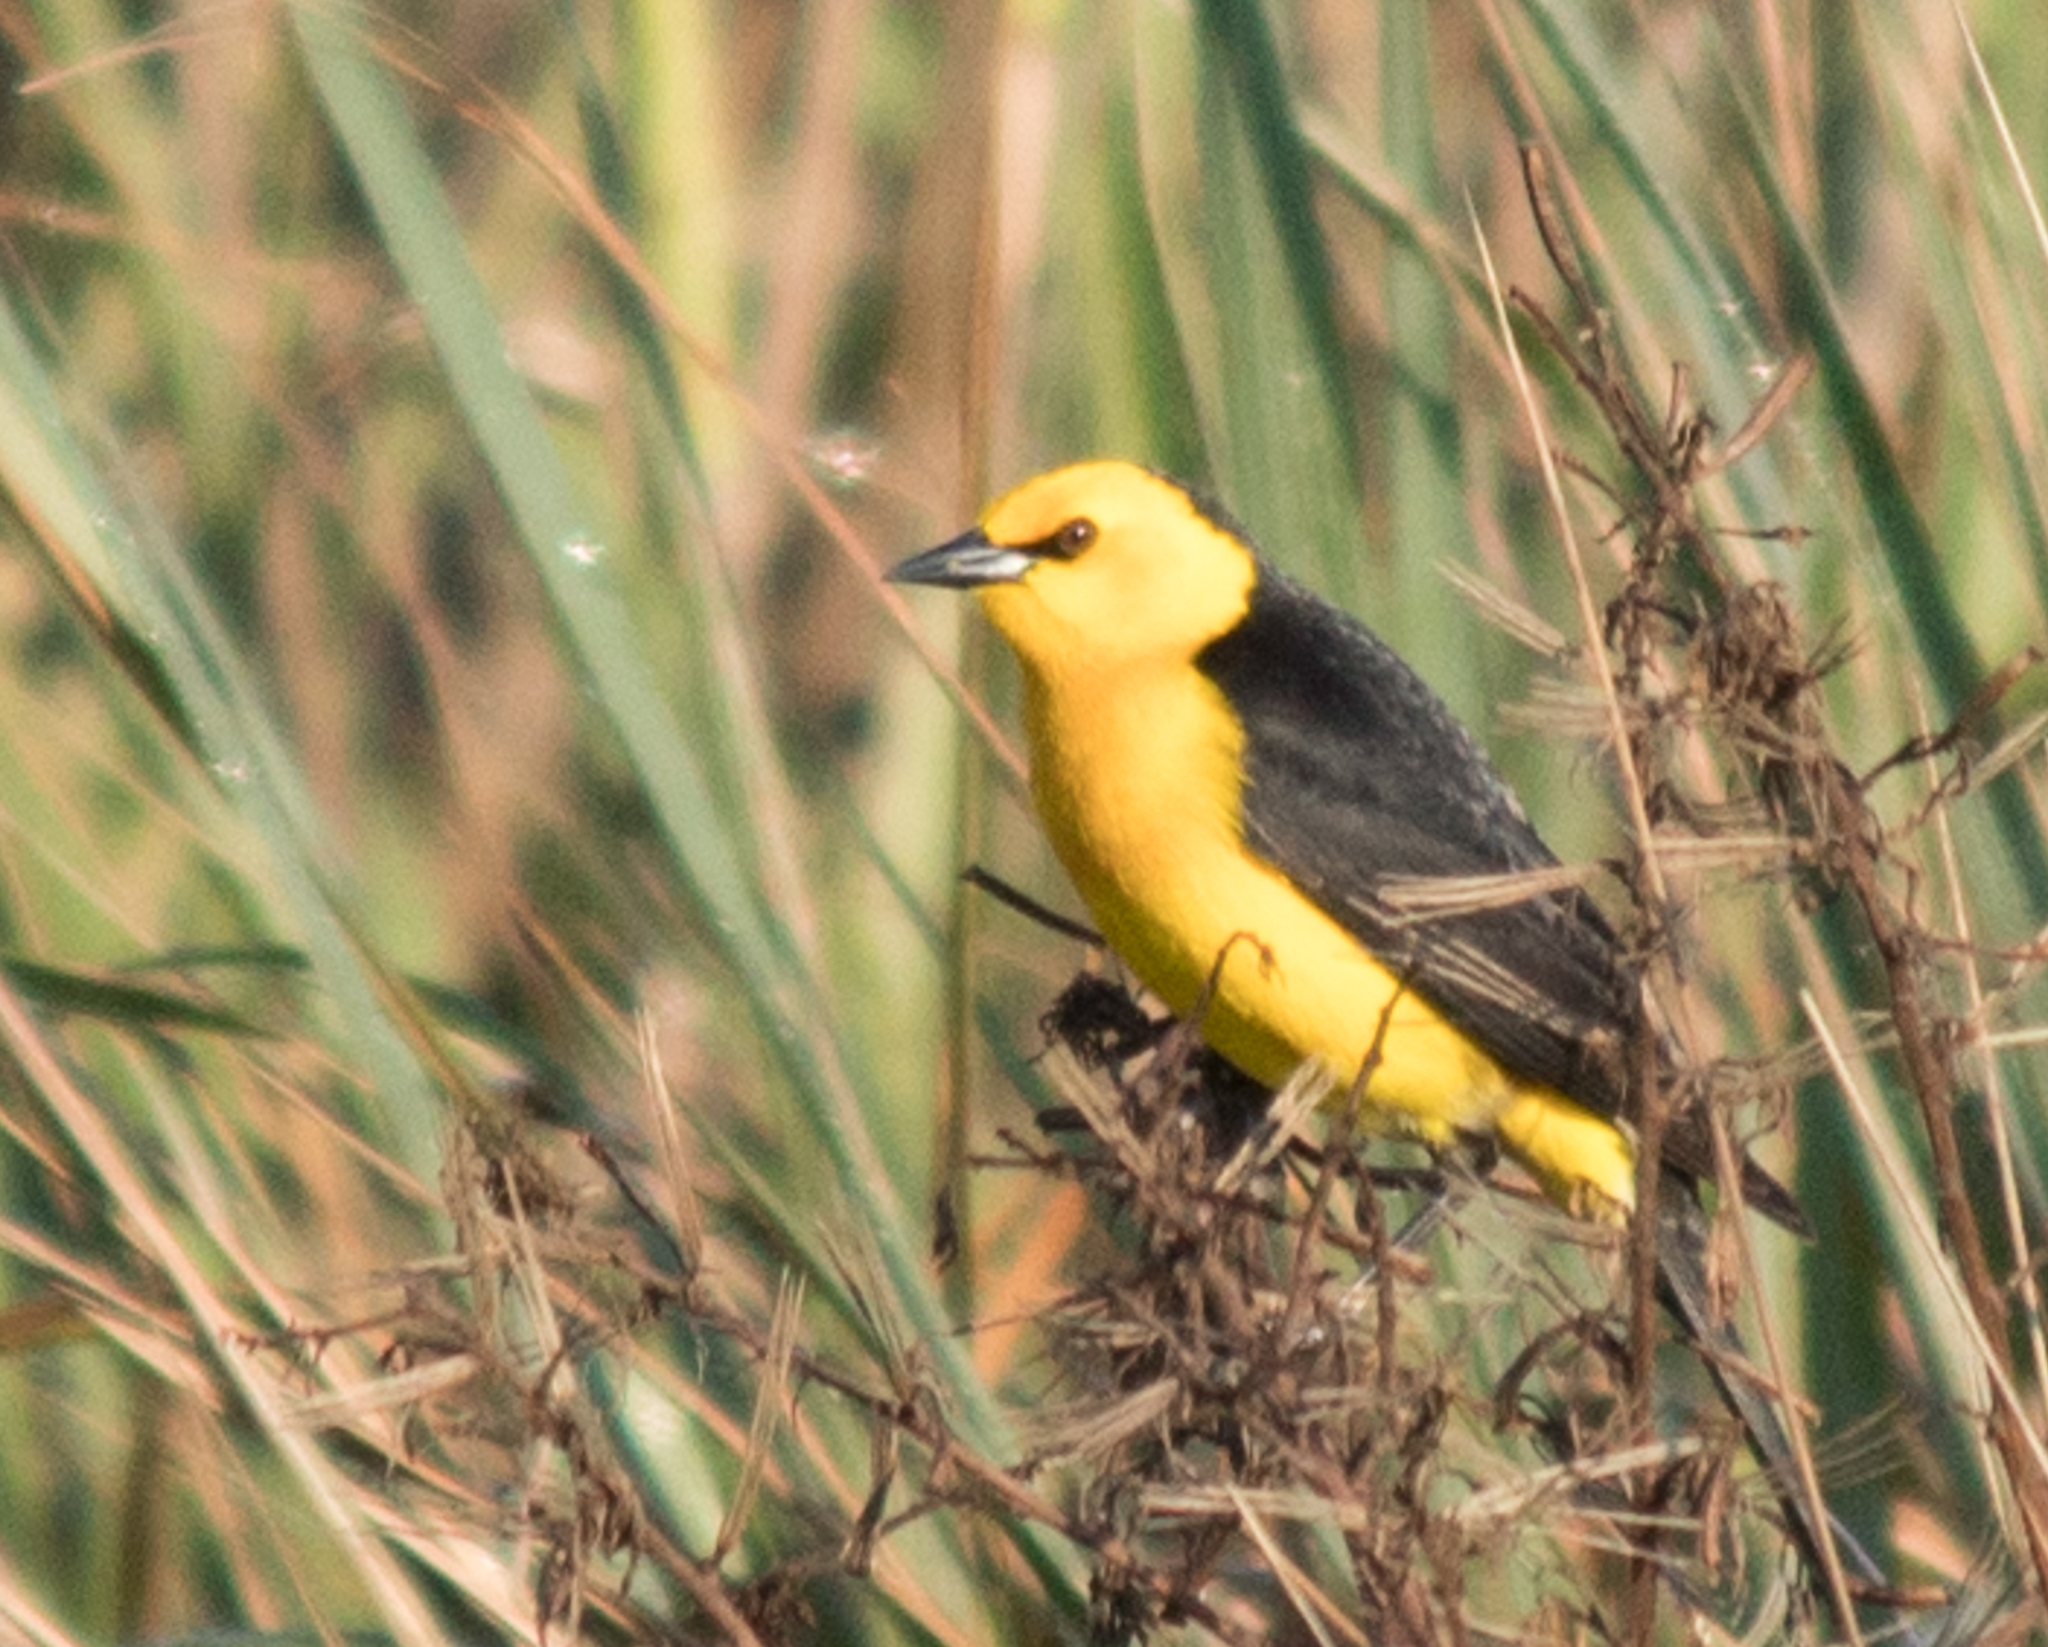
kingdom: Animalia
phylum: Chordata
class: Aves
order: Passeriformes
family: Icteridae
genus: Xanthopsar
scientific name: Xanthopsar flavus
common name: Saffron-cowled blackbird
